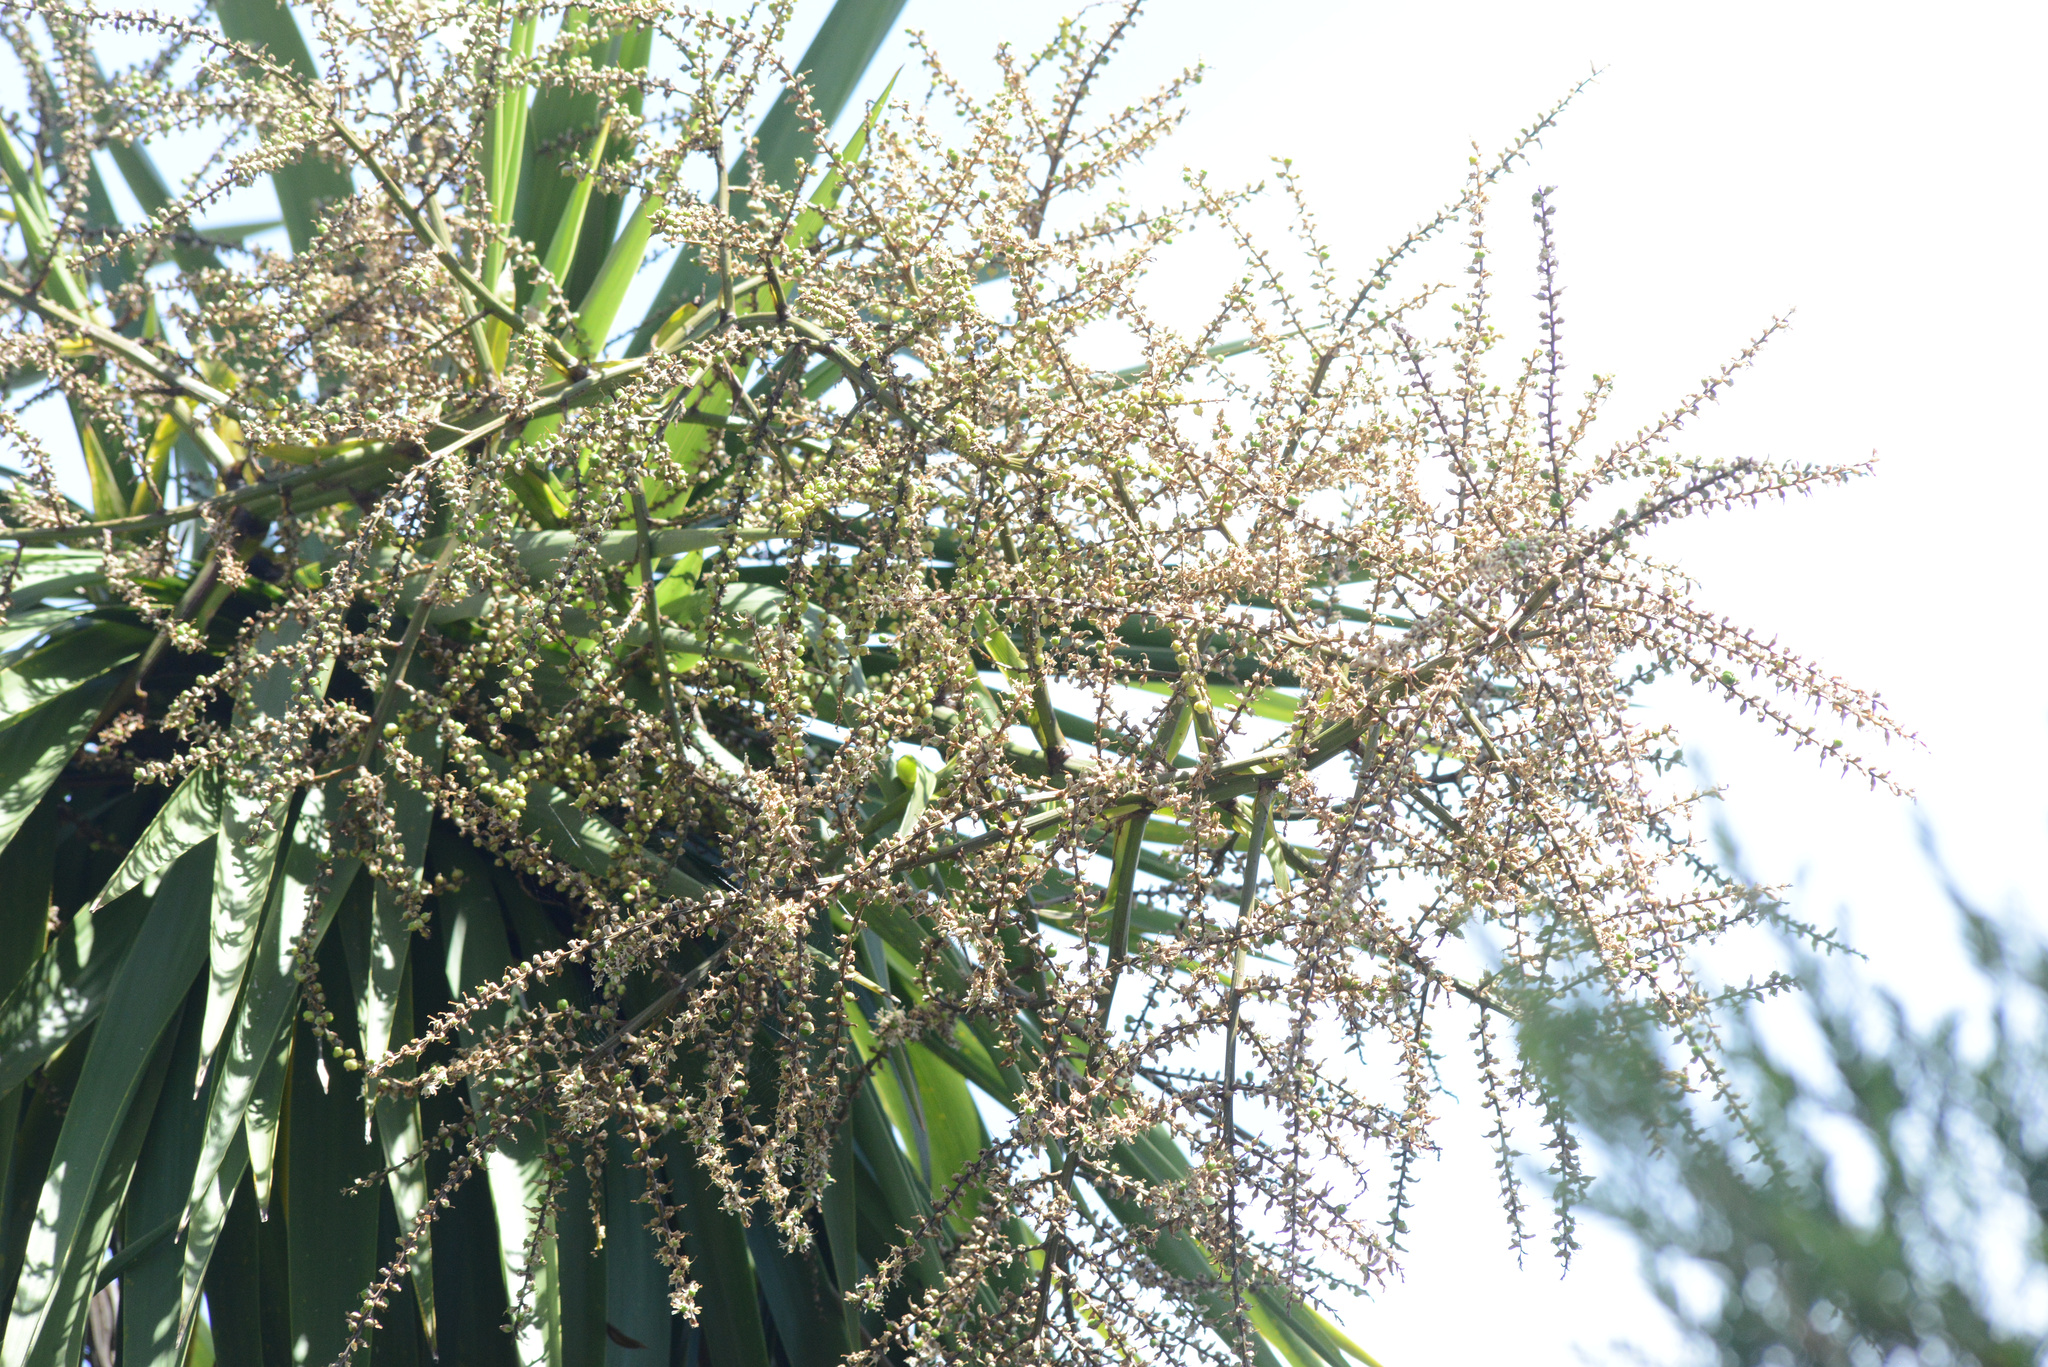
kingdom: Plantae
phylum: Tracheophyta
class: Liliopsida
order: Asparagales
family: Asparagaceae
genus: Cordyline
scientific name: Cordyline australis
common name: Cabbage-palm
